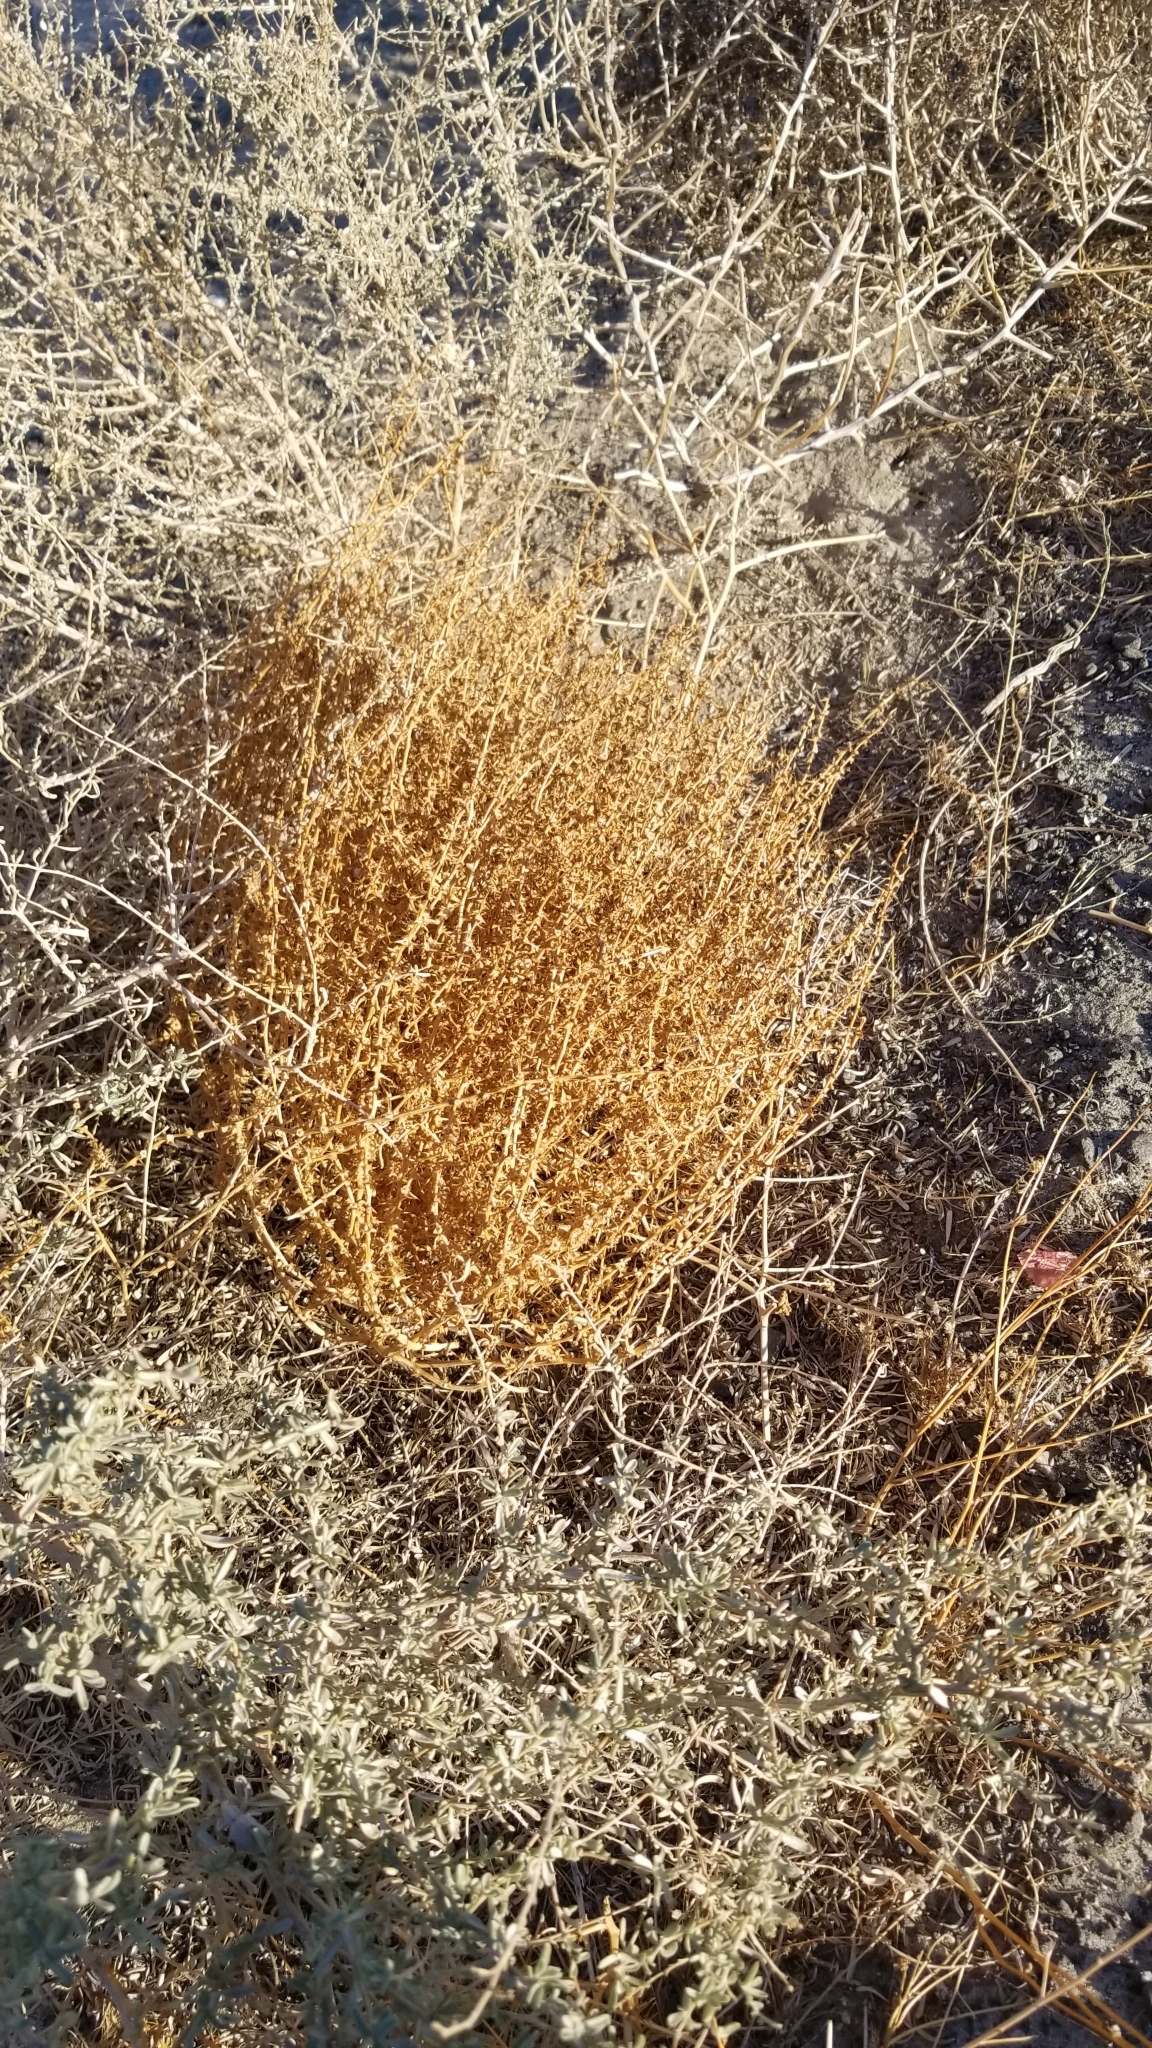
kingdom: Plantae
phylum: Tracheophyta
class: Magnoliopsida
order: Caryophyllales
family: Amaranthaceae
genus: Salsola
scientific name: Salsola tragus
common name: Prickly russian thistle
